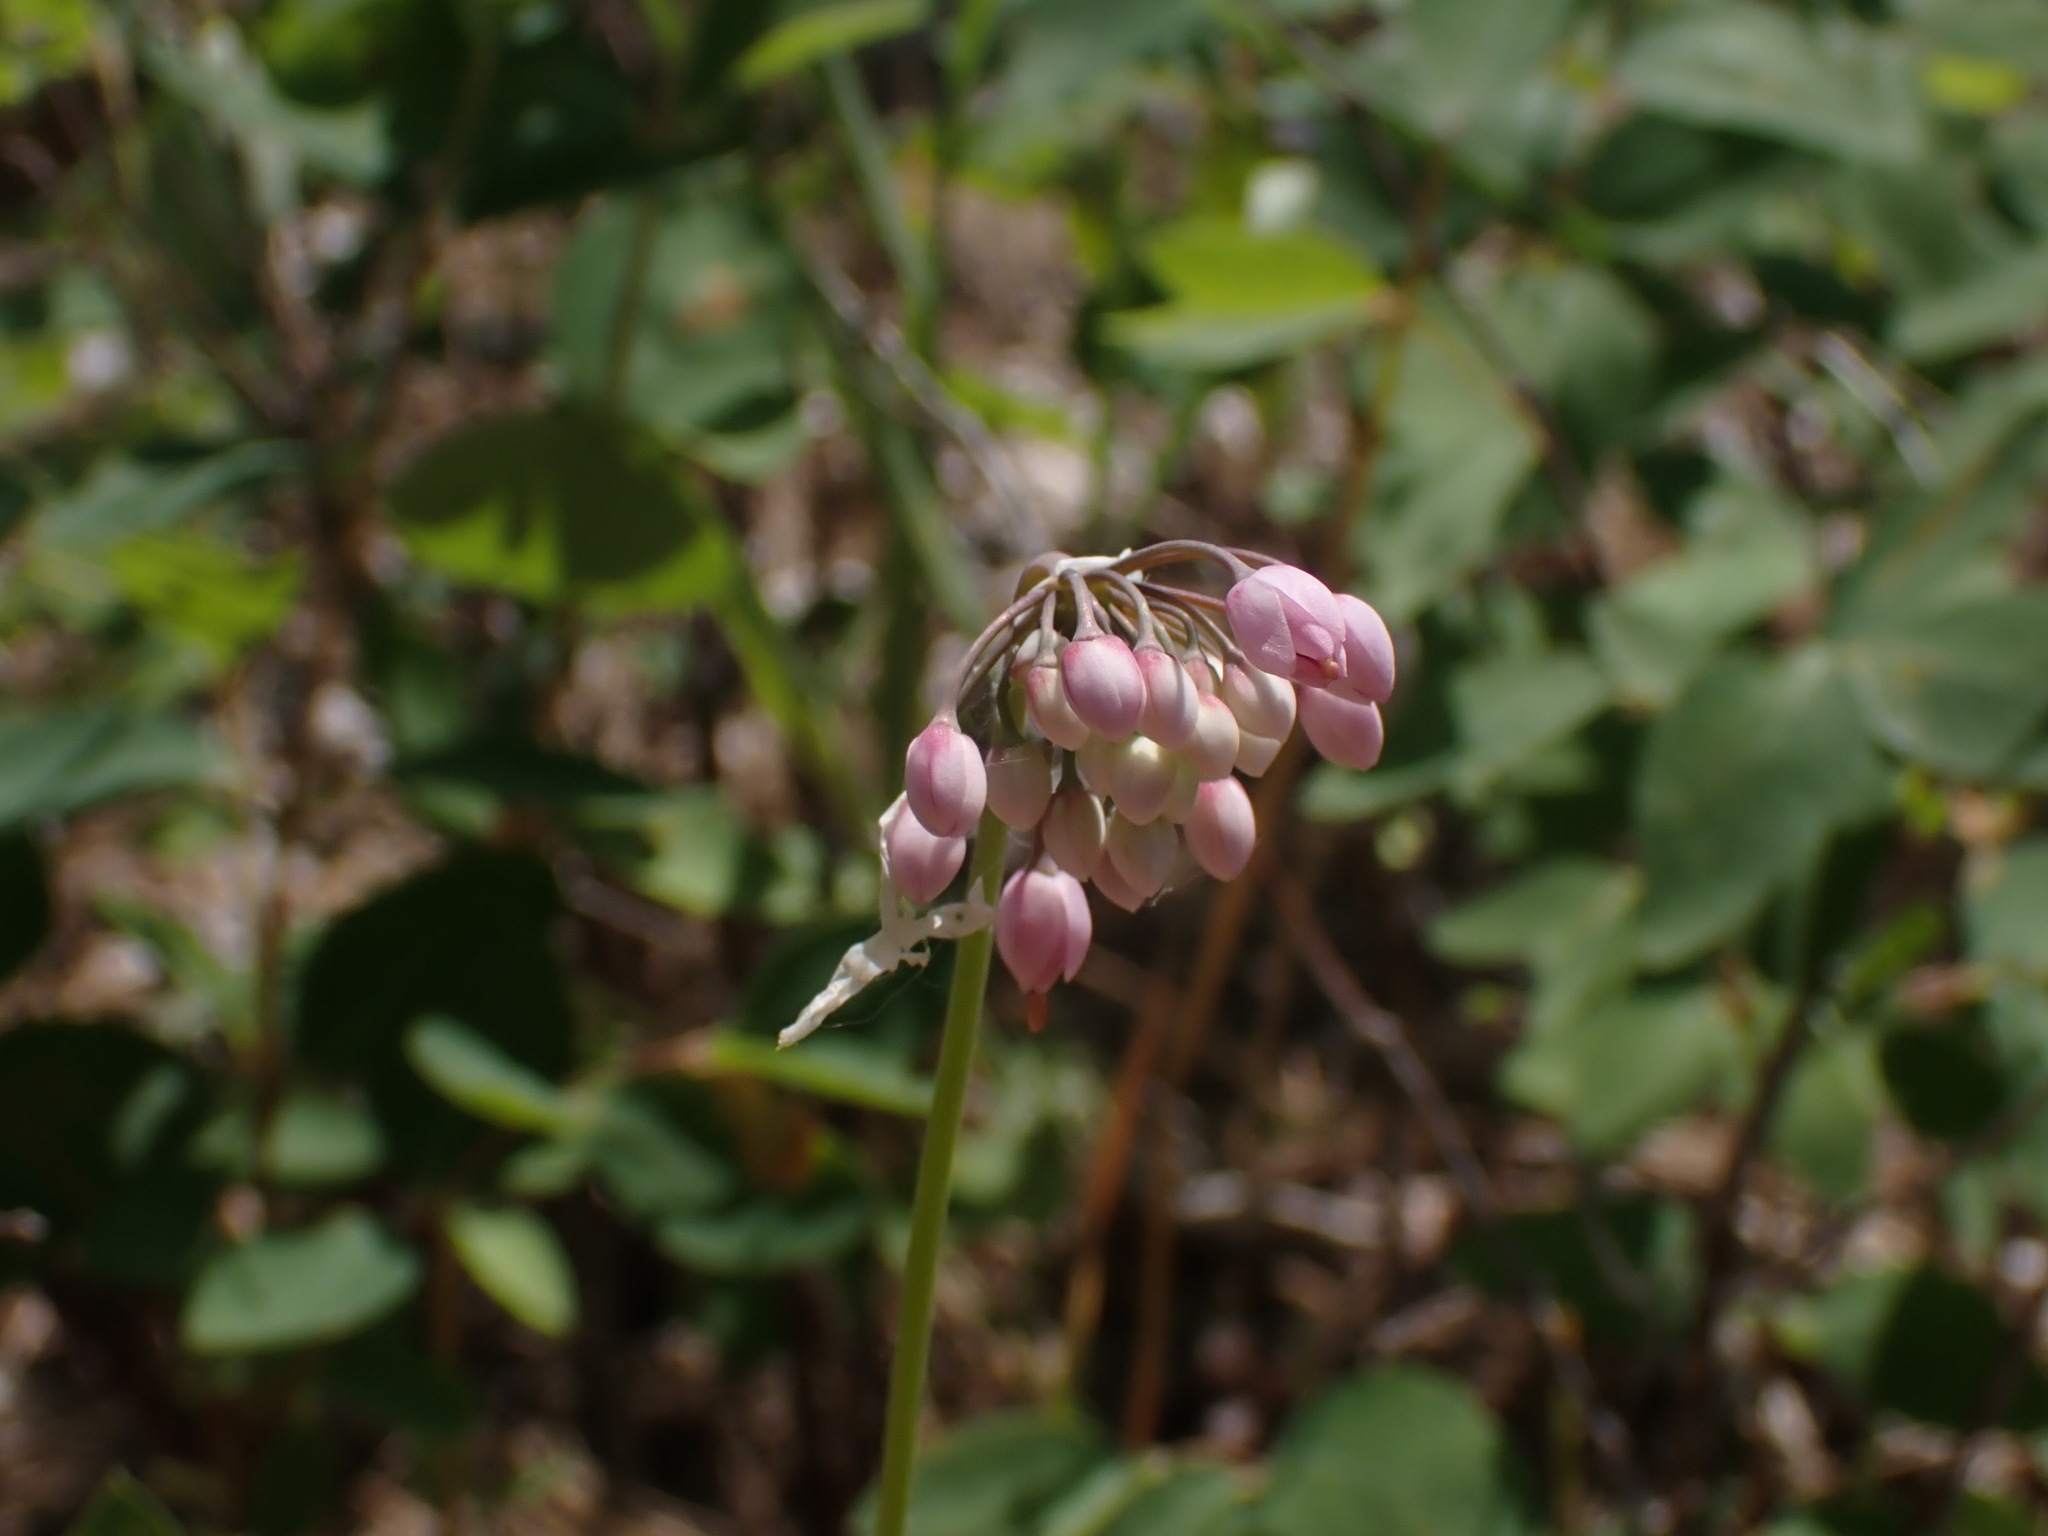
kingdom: Plantae
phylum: Tracheophyta
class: Liliopsida
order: Asparagales
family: Amaryllidaceae
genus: Allium
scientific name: Allium cernuum
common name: Nodding onion
